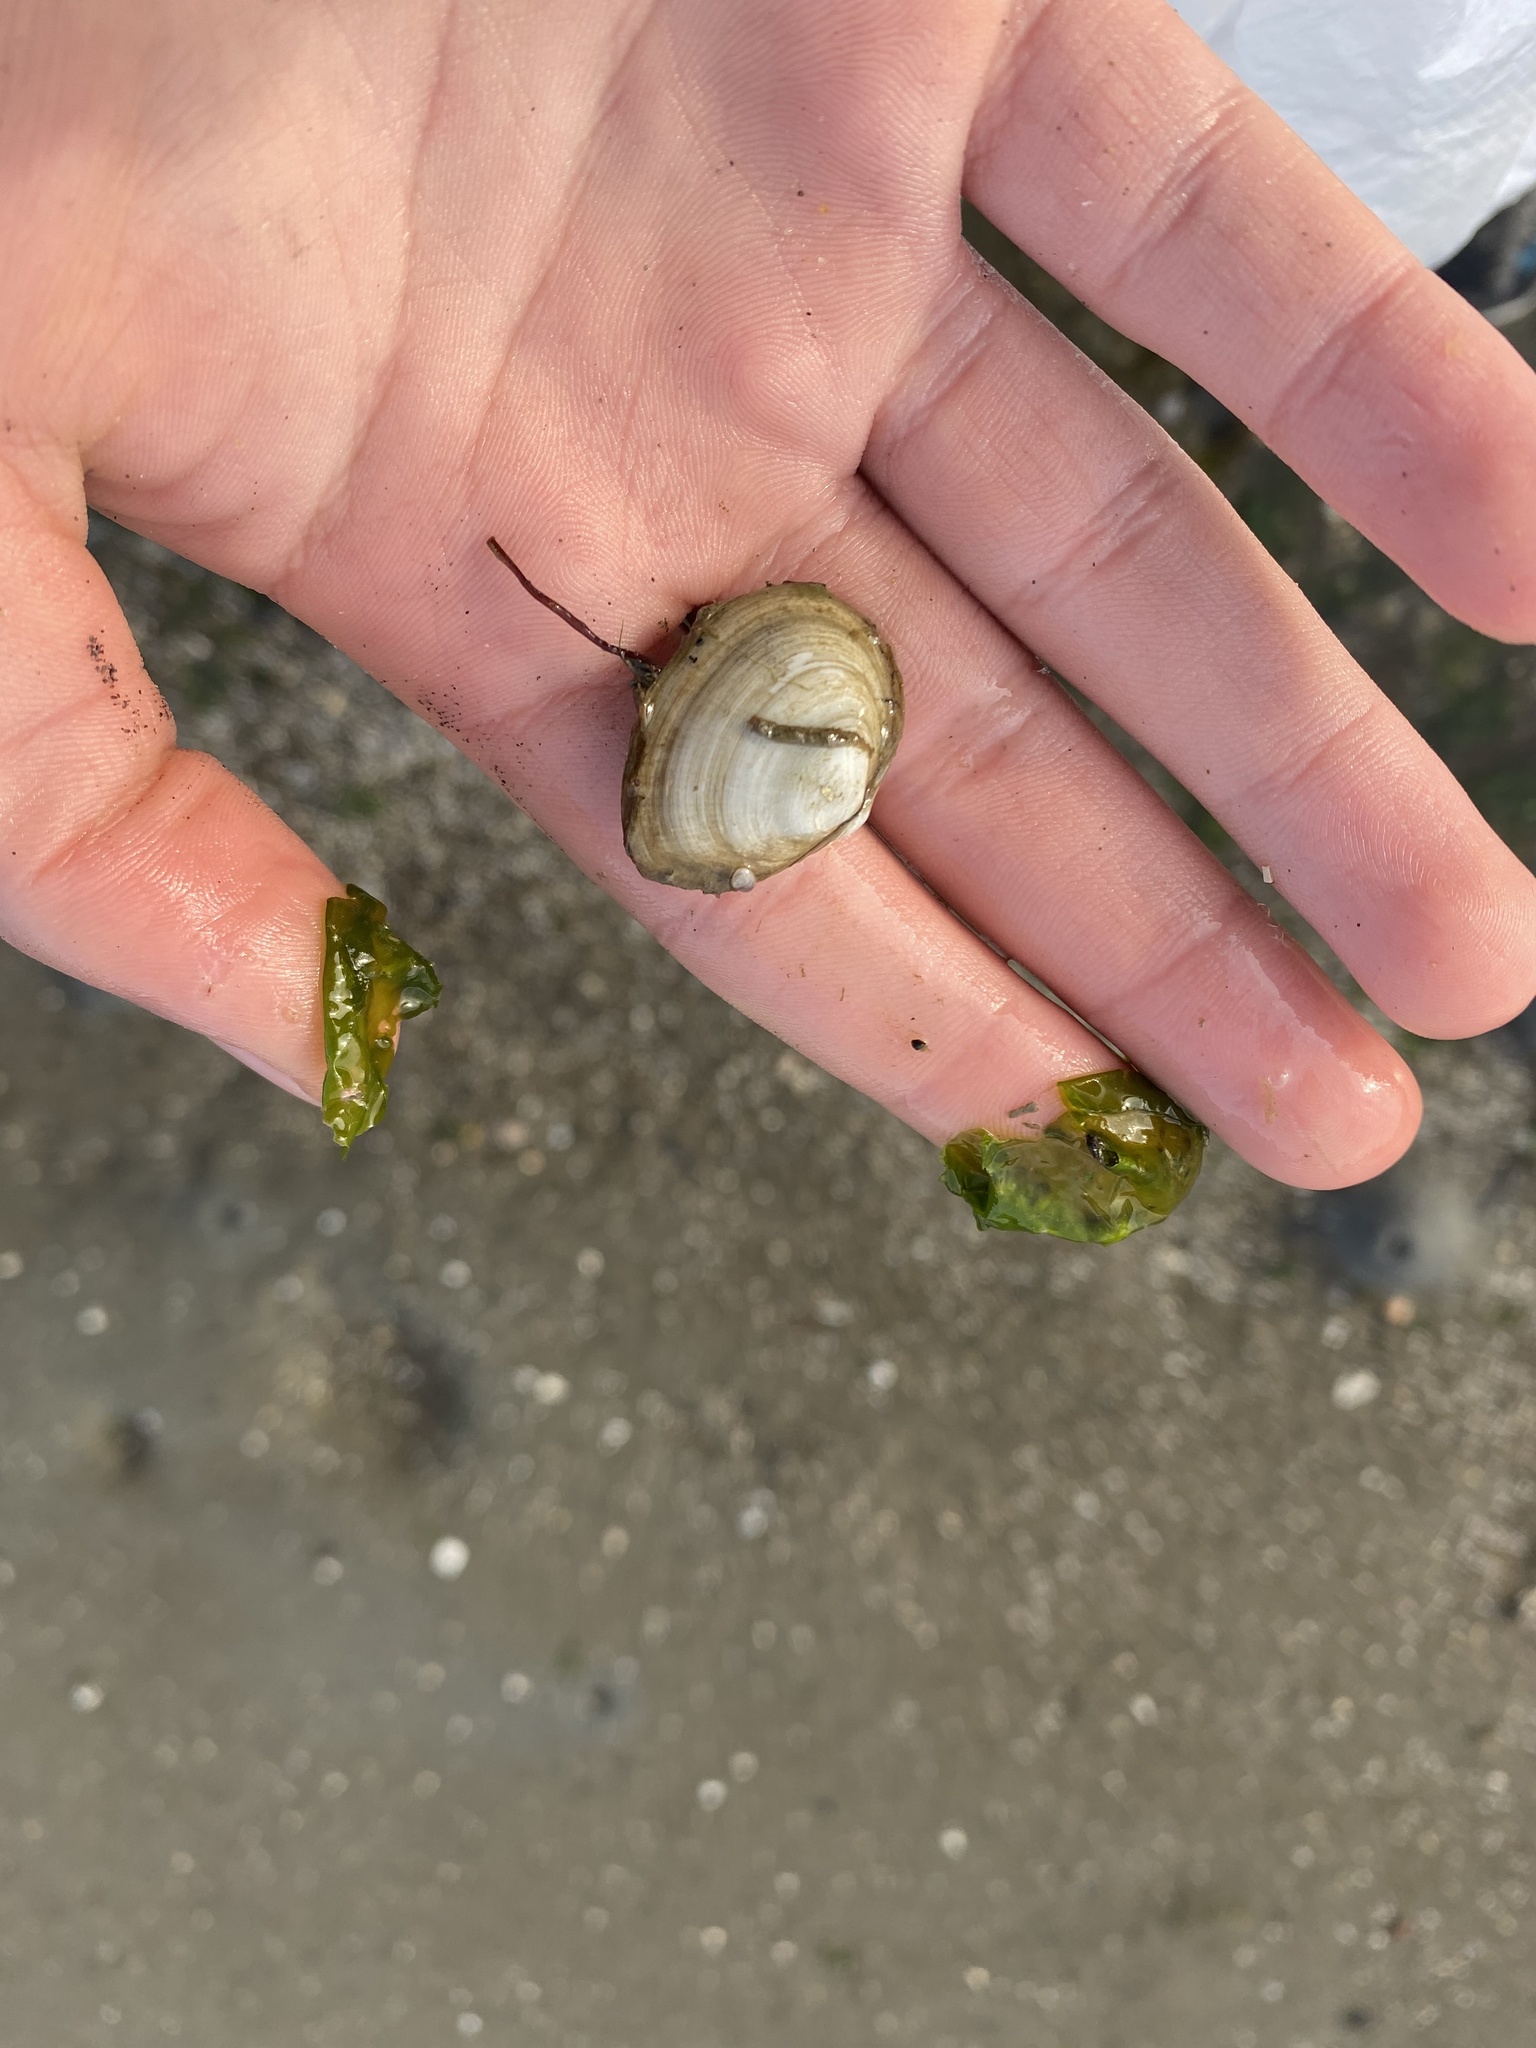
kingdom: Animalia
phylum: Mollusca
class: Bivalvia
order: Myida
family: Myidae
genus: Cryptomya
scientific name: Cryptomya californica
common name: California softshell clam
